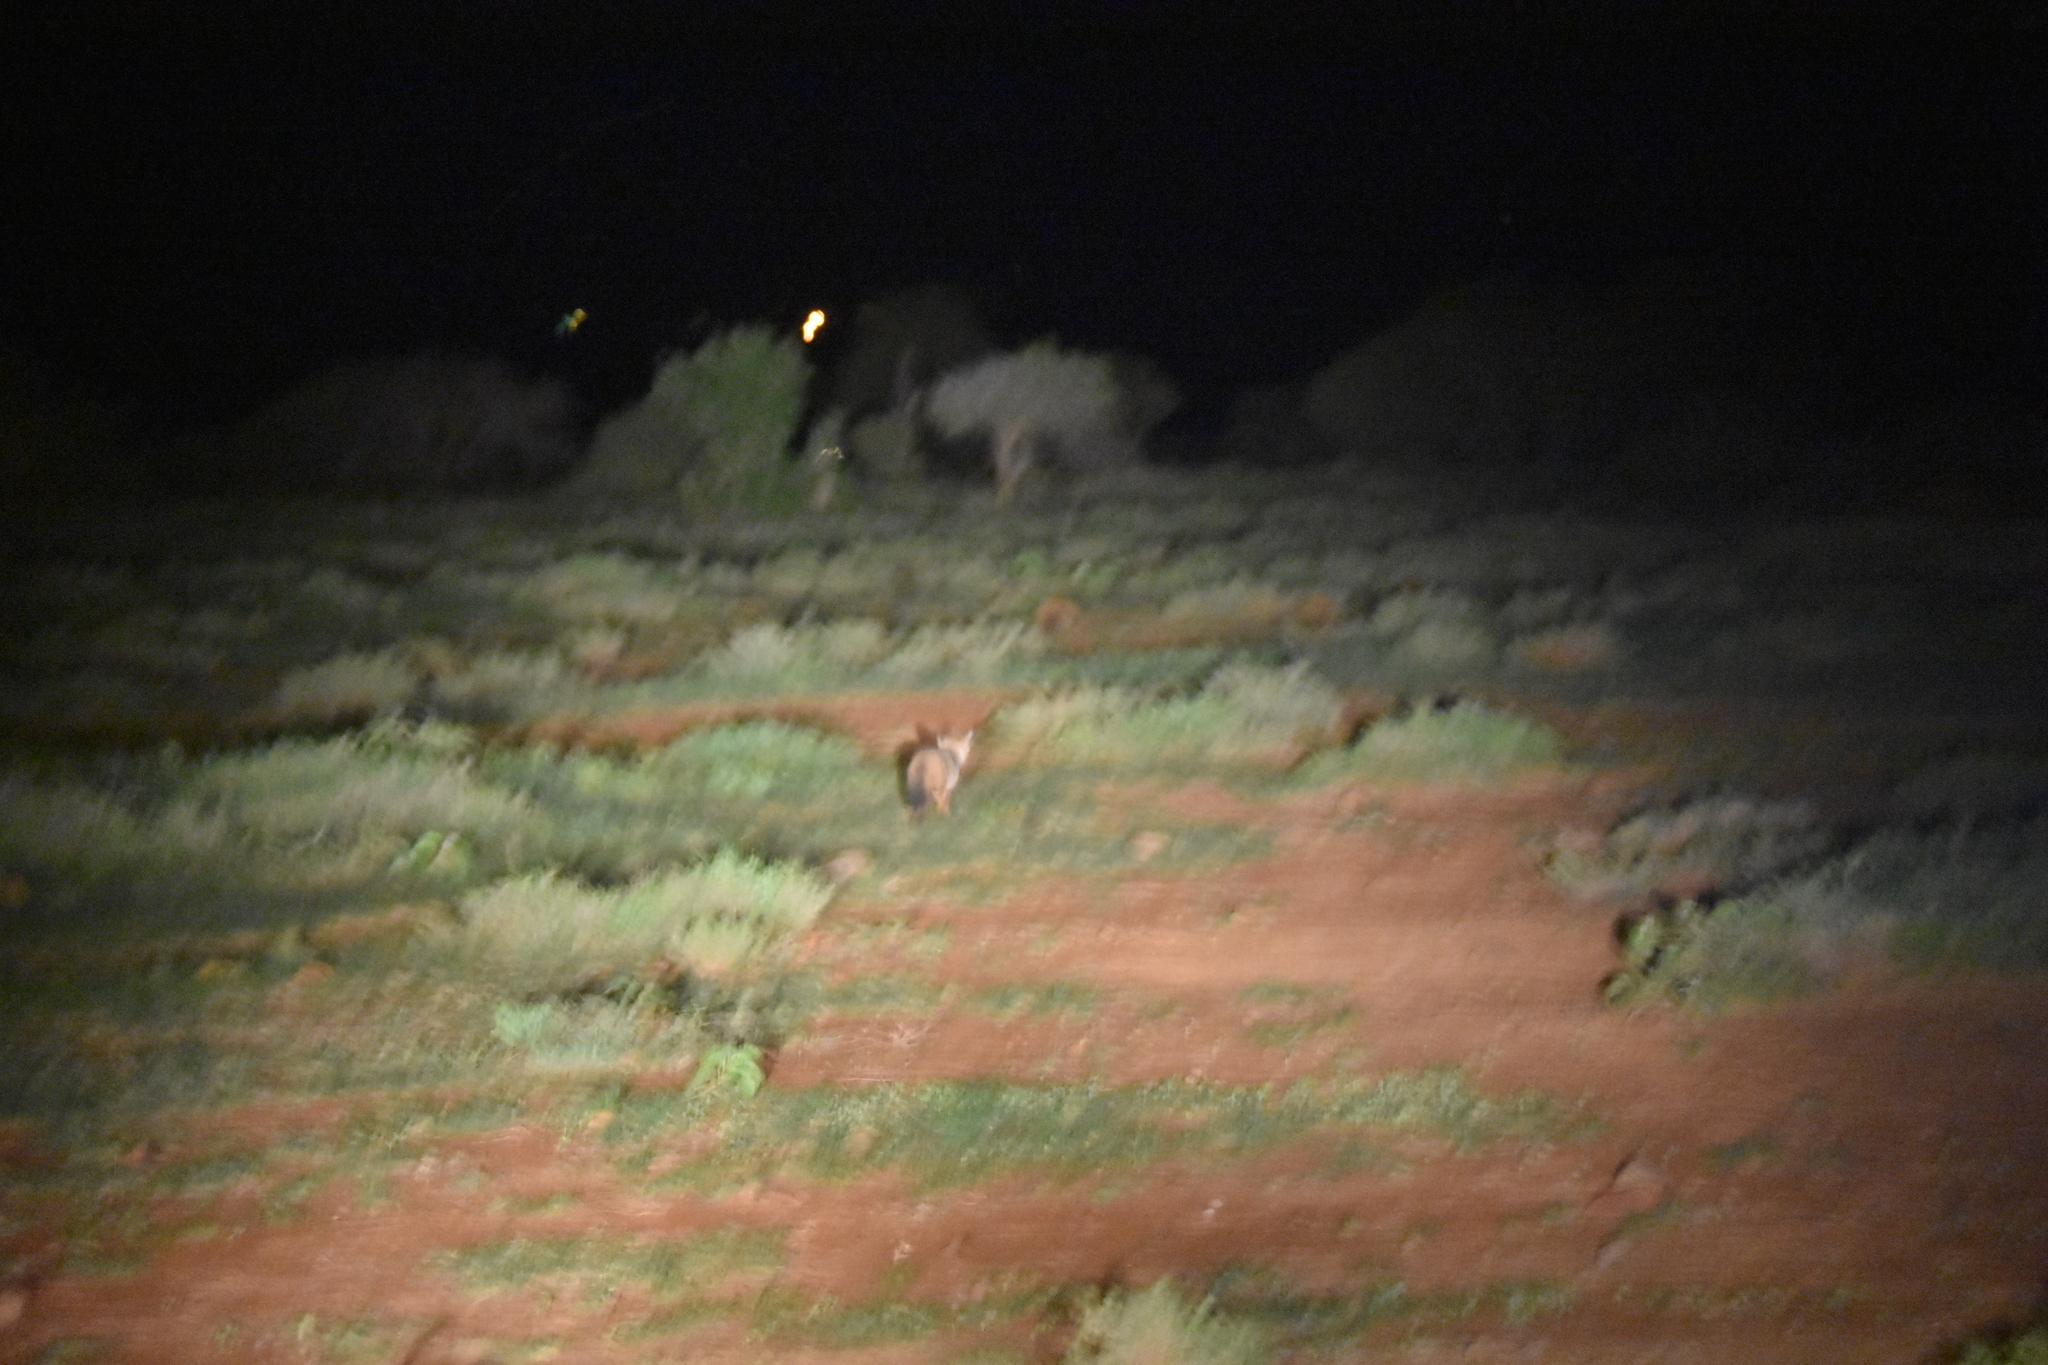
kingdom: Animalia
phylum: Chordata
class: Mammalia
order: Carnivora
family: Canidae
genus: Otocyon
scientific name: Otocyon megalotis
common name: Bat-eared fox
